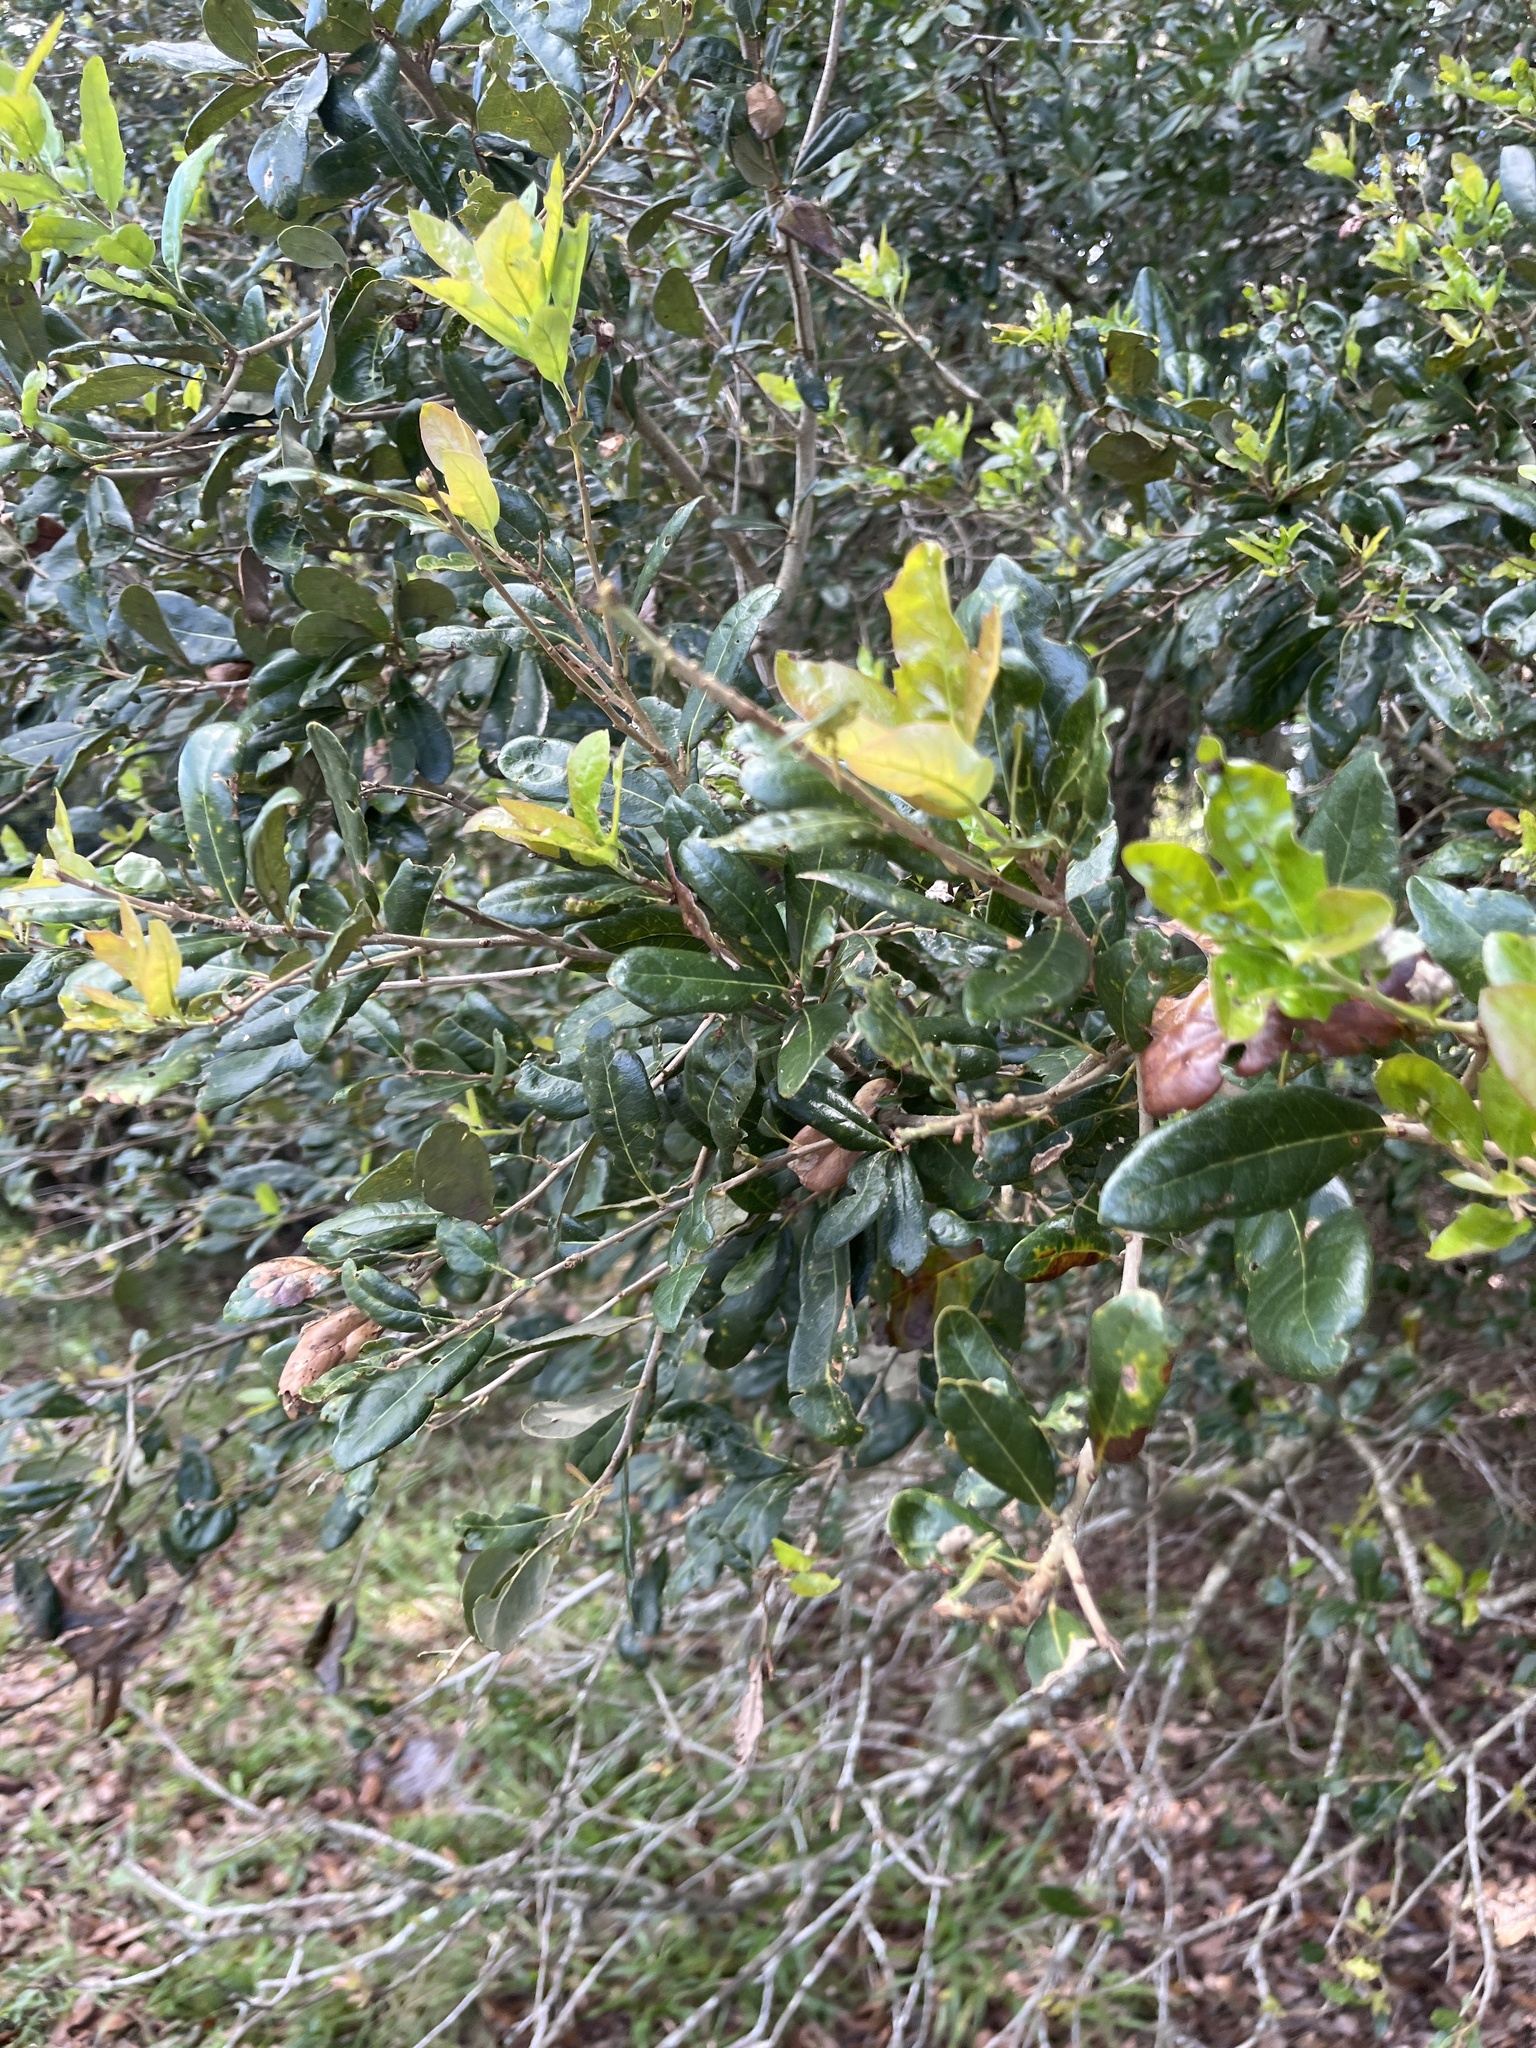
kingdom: Plantae
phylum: Tracheophyta
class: Magnoliopsida
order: Fagales
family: Fagaceae
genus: Quercus
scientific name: Quercus virginiana
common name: Southern live oak
